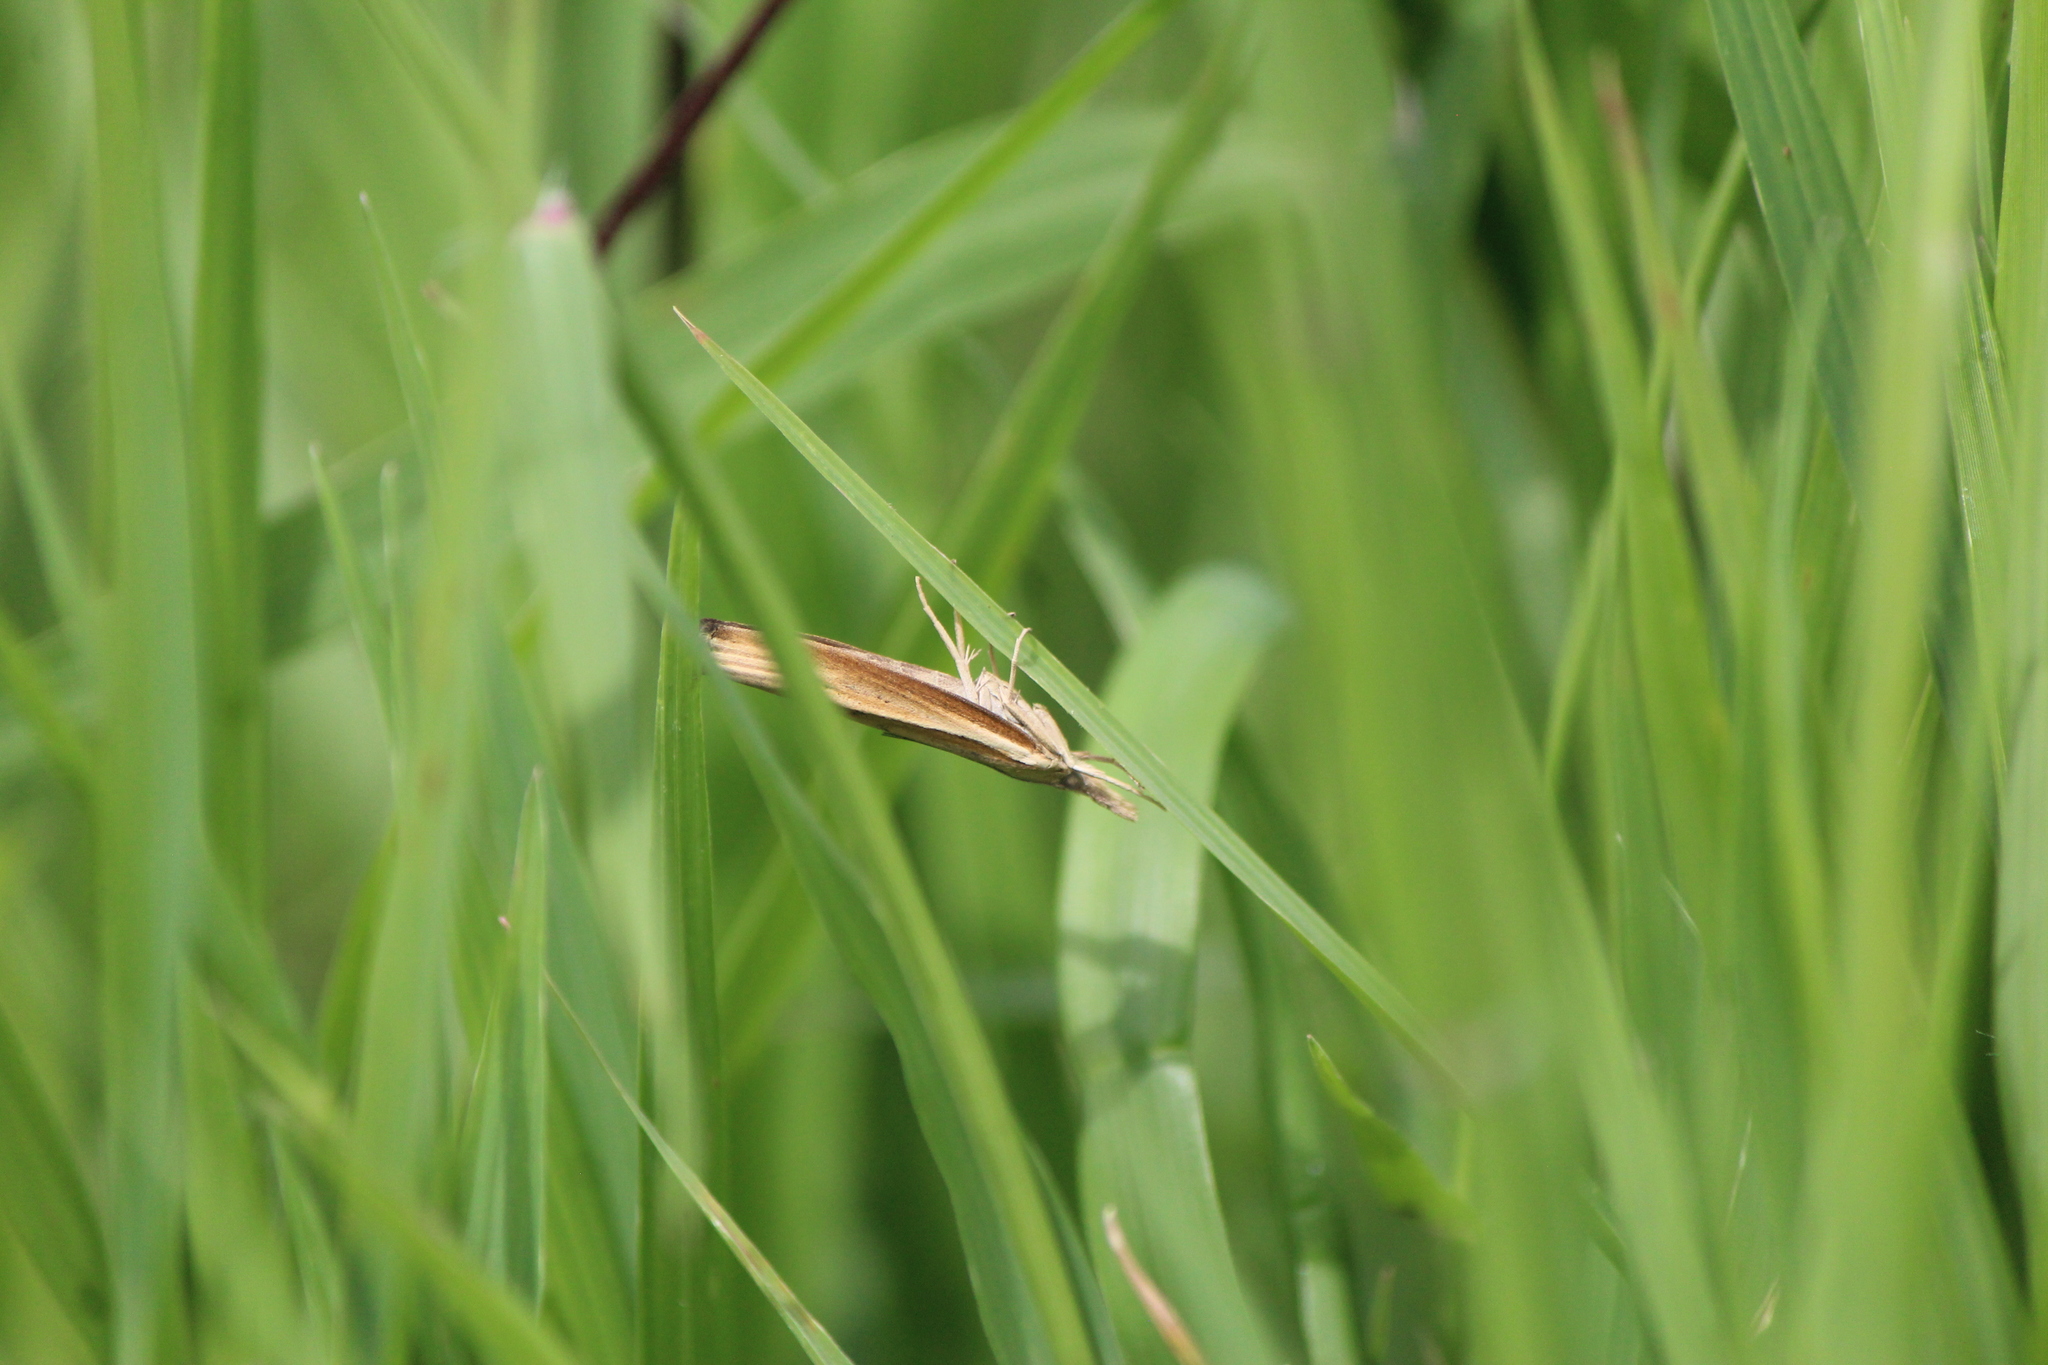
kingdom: Animalia
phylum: Arthropoda
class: Insecta
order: Lepidoptera
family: Crambidae
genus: Fissicrambus
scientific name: Fissicrambus fissiradiellus
